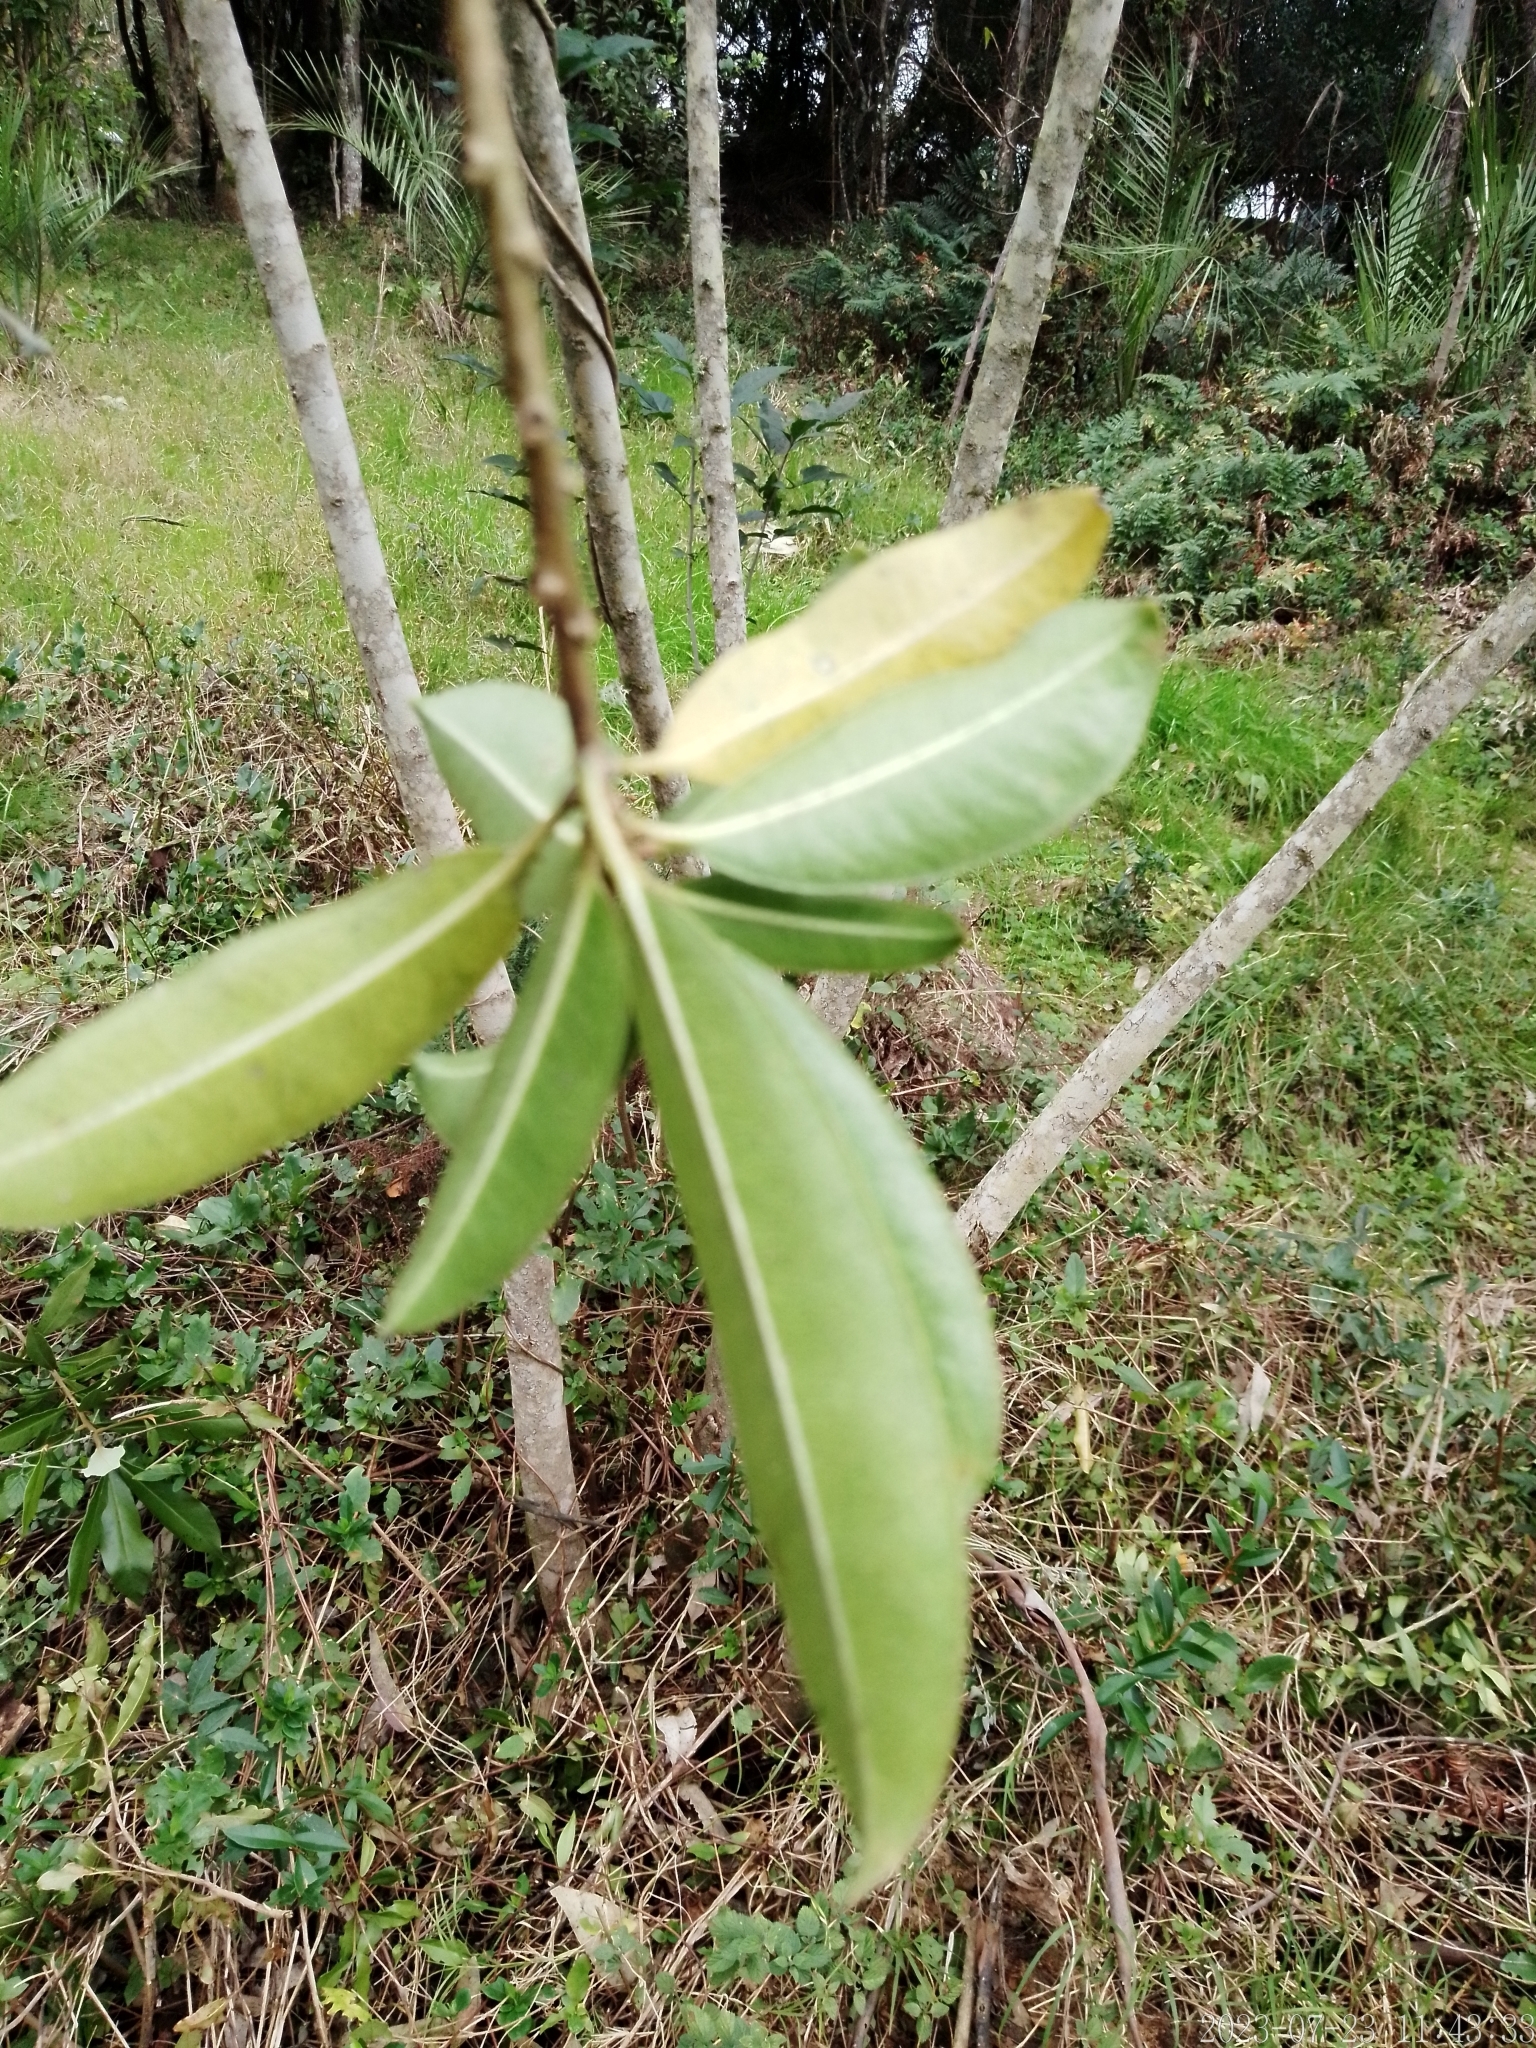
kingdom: Plantae
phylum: Tracheophyta
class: Magnoliopsida
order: Malpighiales
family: Euphorbiaceae
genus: Sapium
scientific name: Sapium haematospermum
